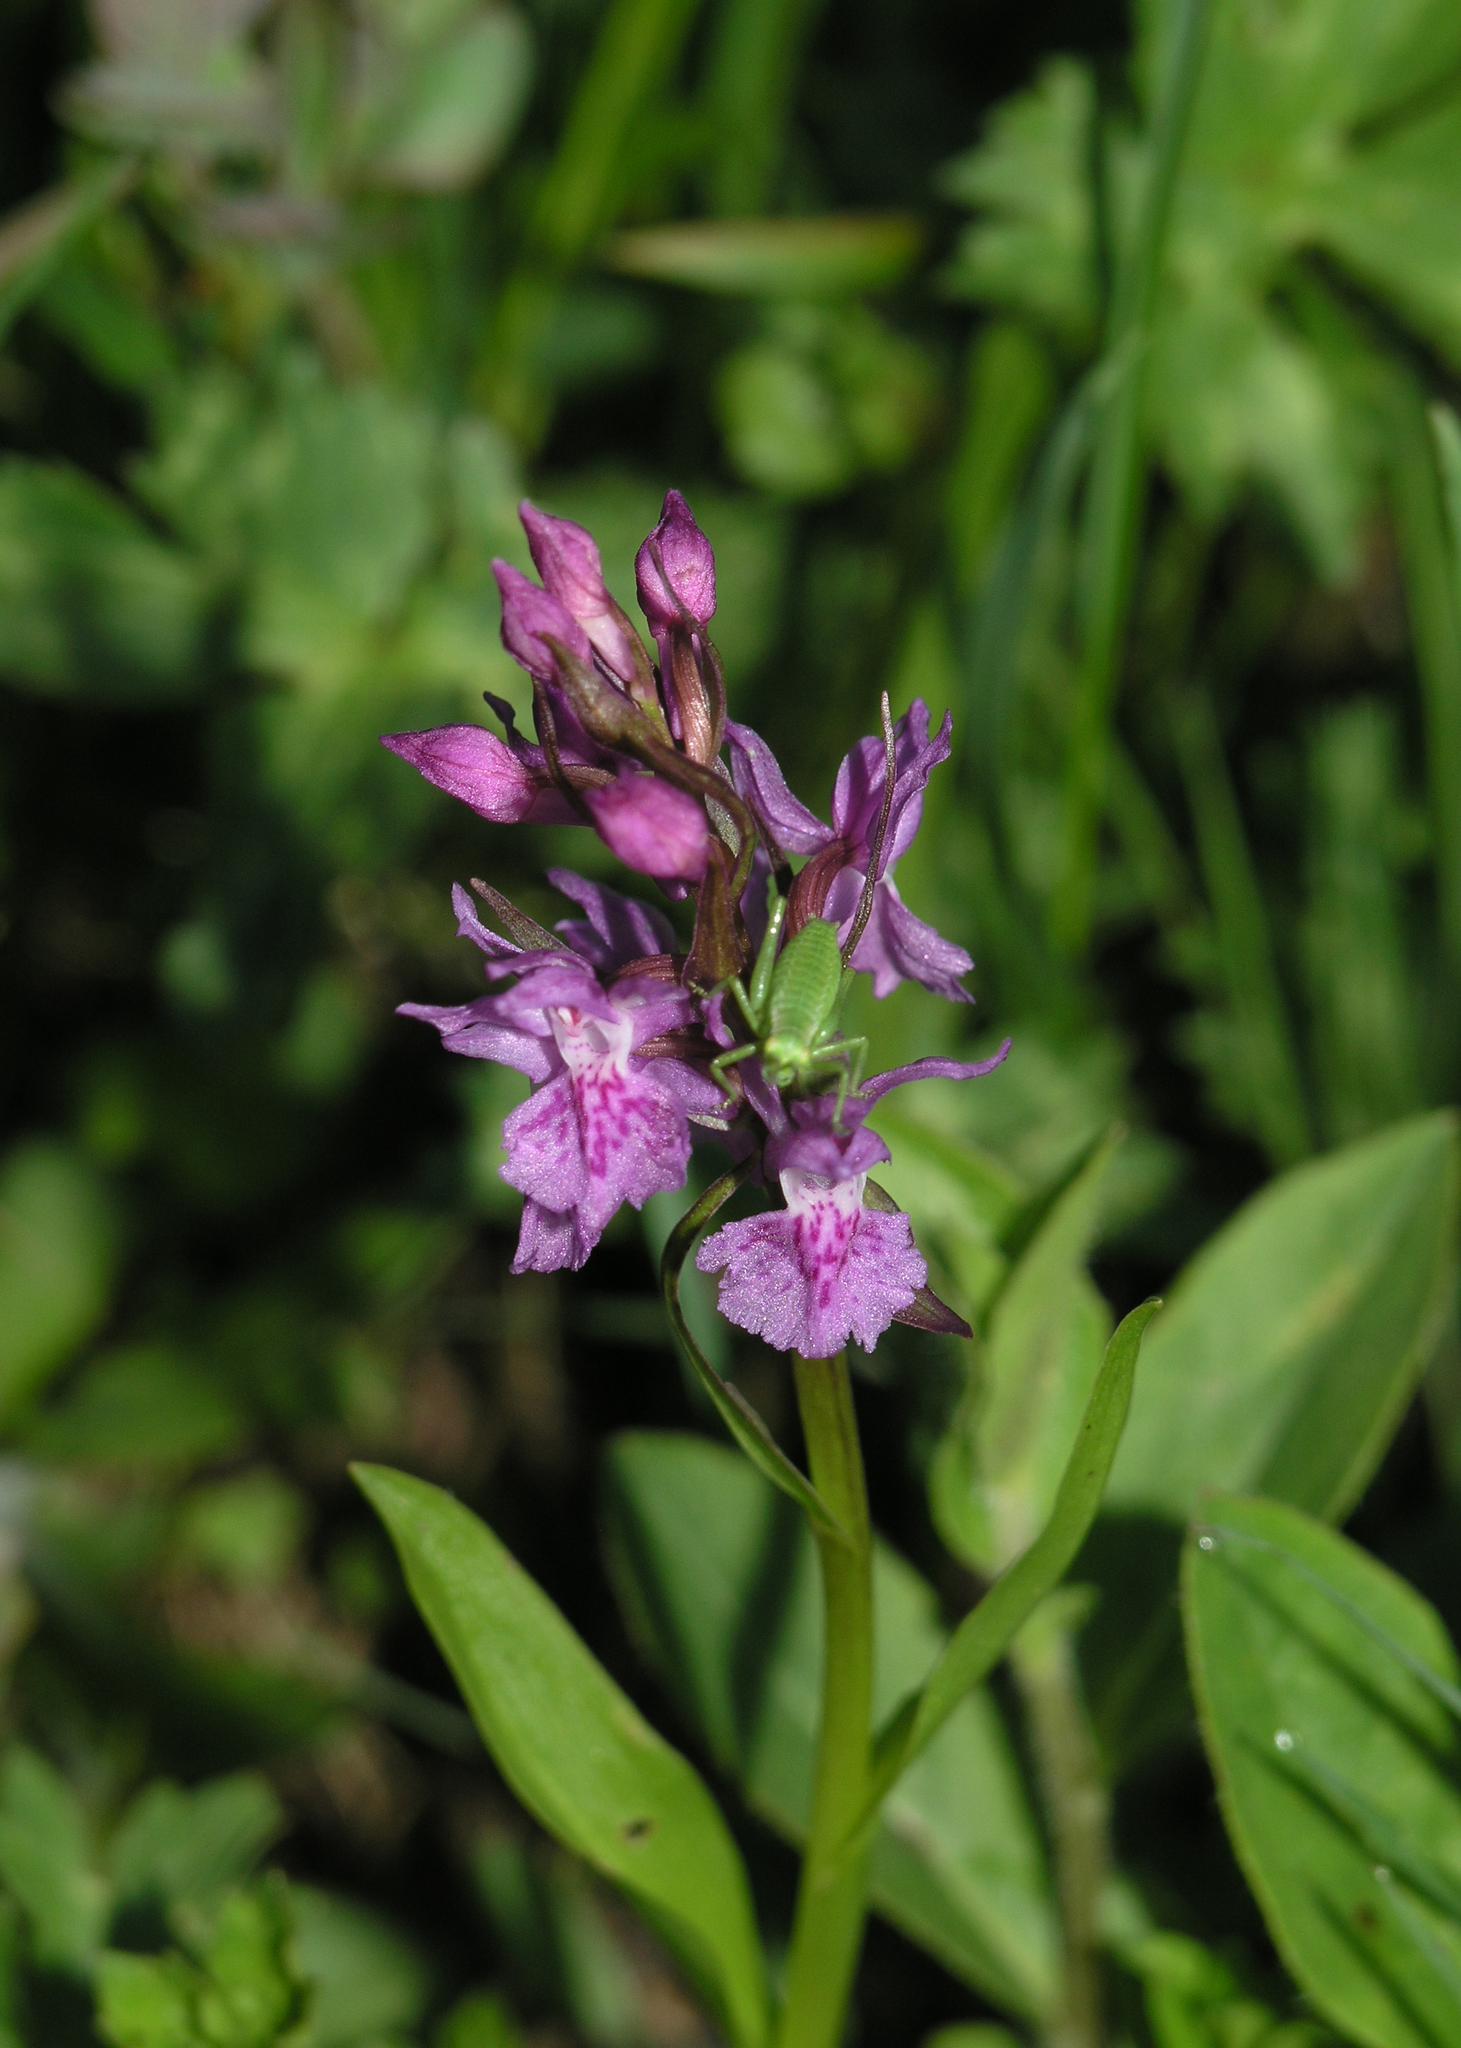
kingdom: Plantae
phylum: Tracheophyta
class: Liliopsida
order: Asparagales
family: Orchidaceae
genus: Dactylorhiza
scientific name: Dactylorhiza euxina
